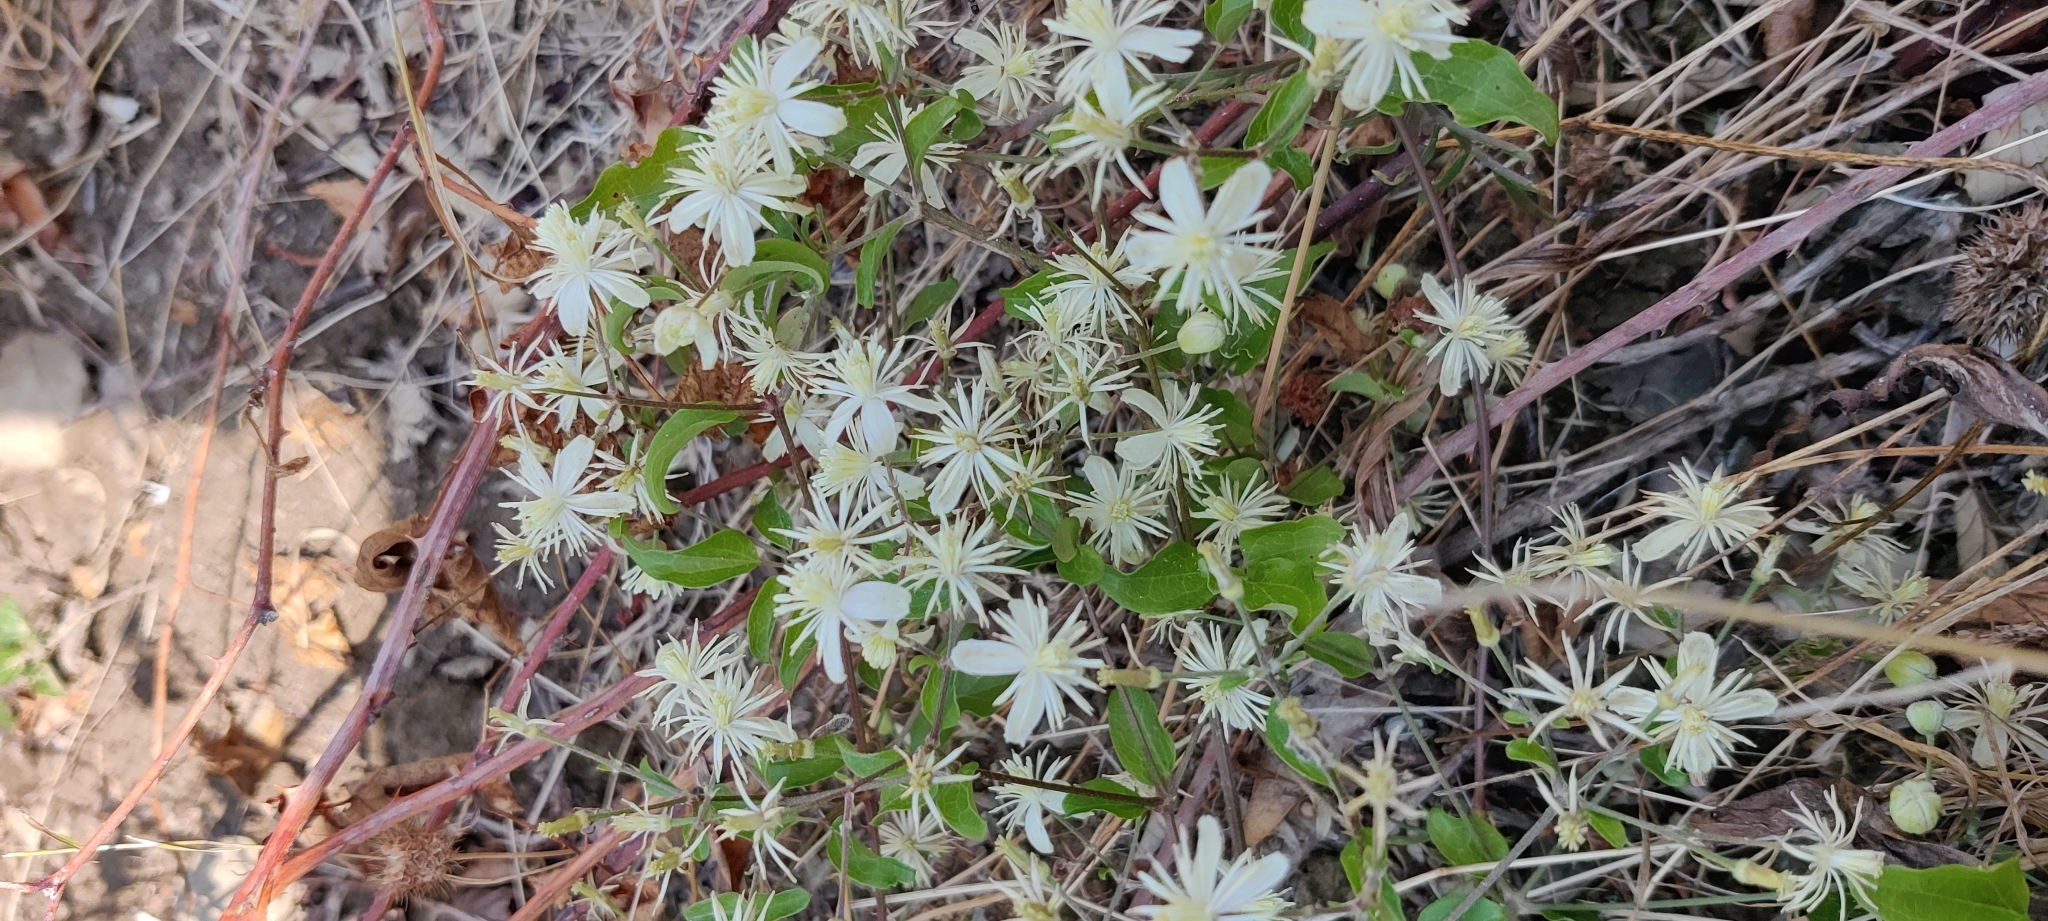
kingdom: Plantae
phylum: Tracheophyta
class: Magnoliopsida
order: Ranunculales
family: Ranunculaceae
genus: Clematis
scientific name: Clematis flammula
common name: Virgin's-bower
